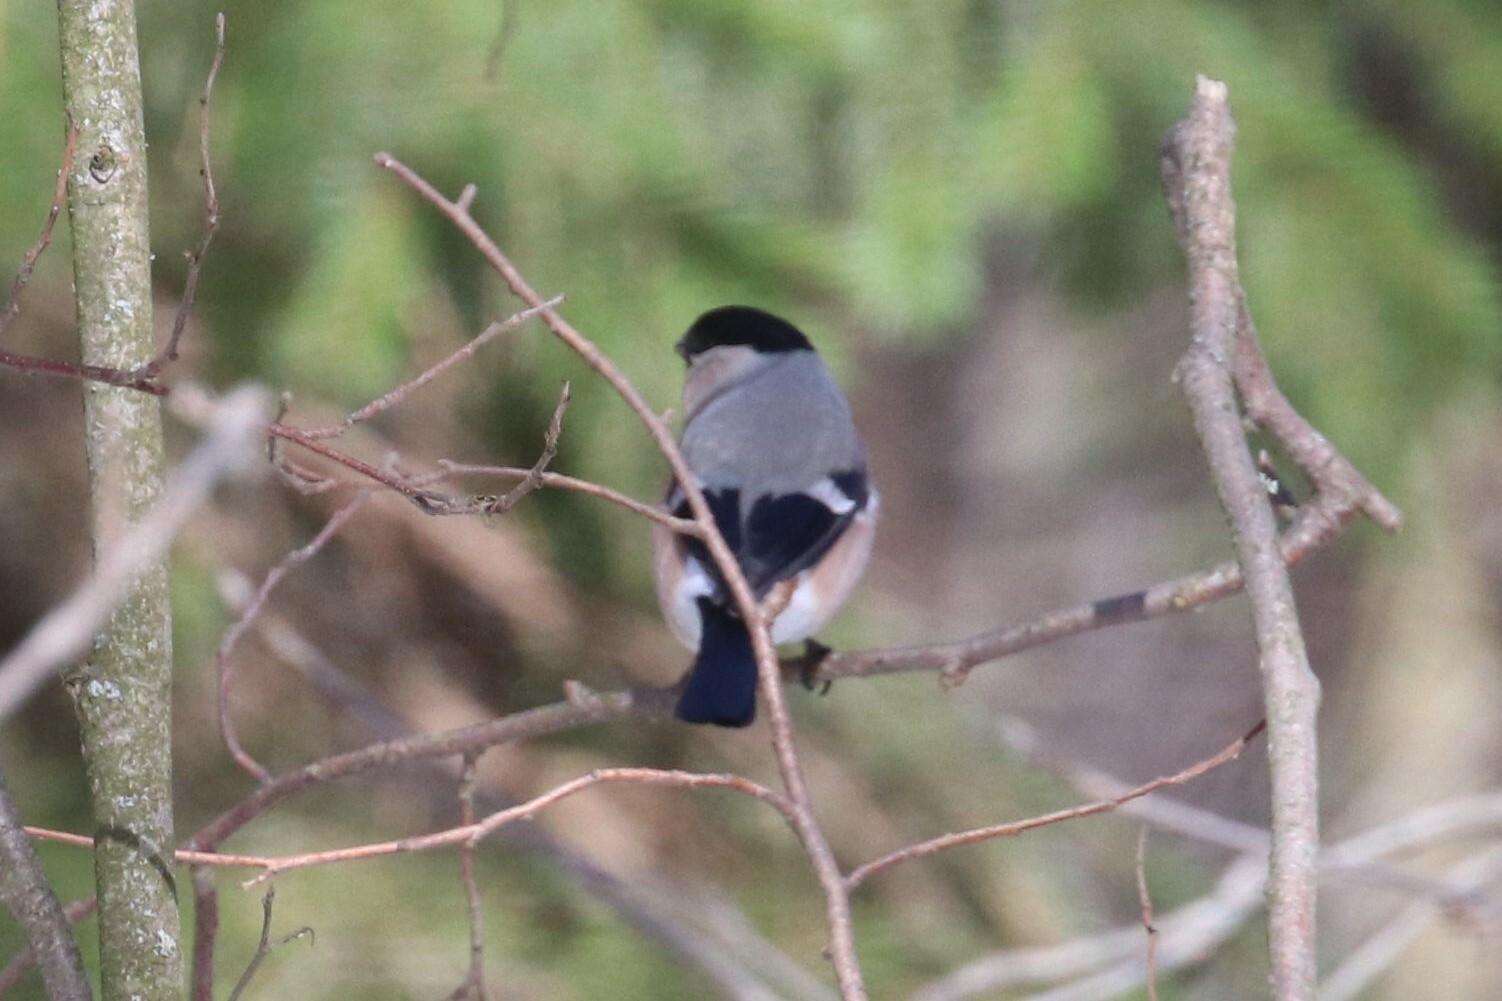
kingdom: Animalia
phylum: Chordata
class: Aves
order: Passeriformes
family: Fringillidae
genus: Pyrrhula
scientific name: Pyrrhula pyrrhula
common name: Eurasian bullfinch
